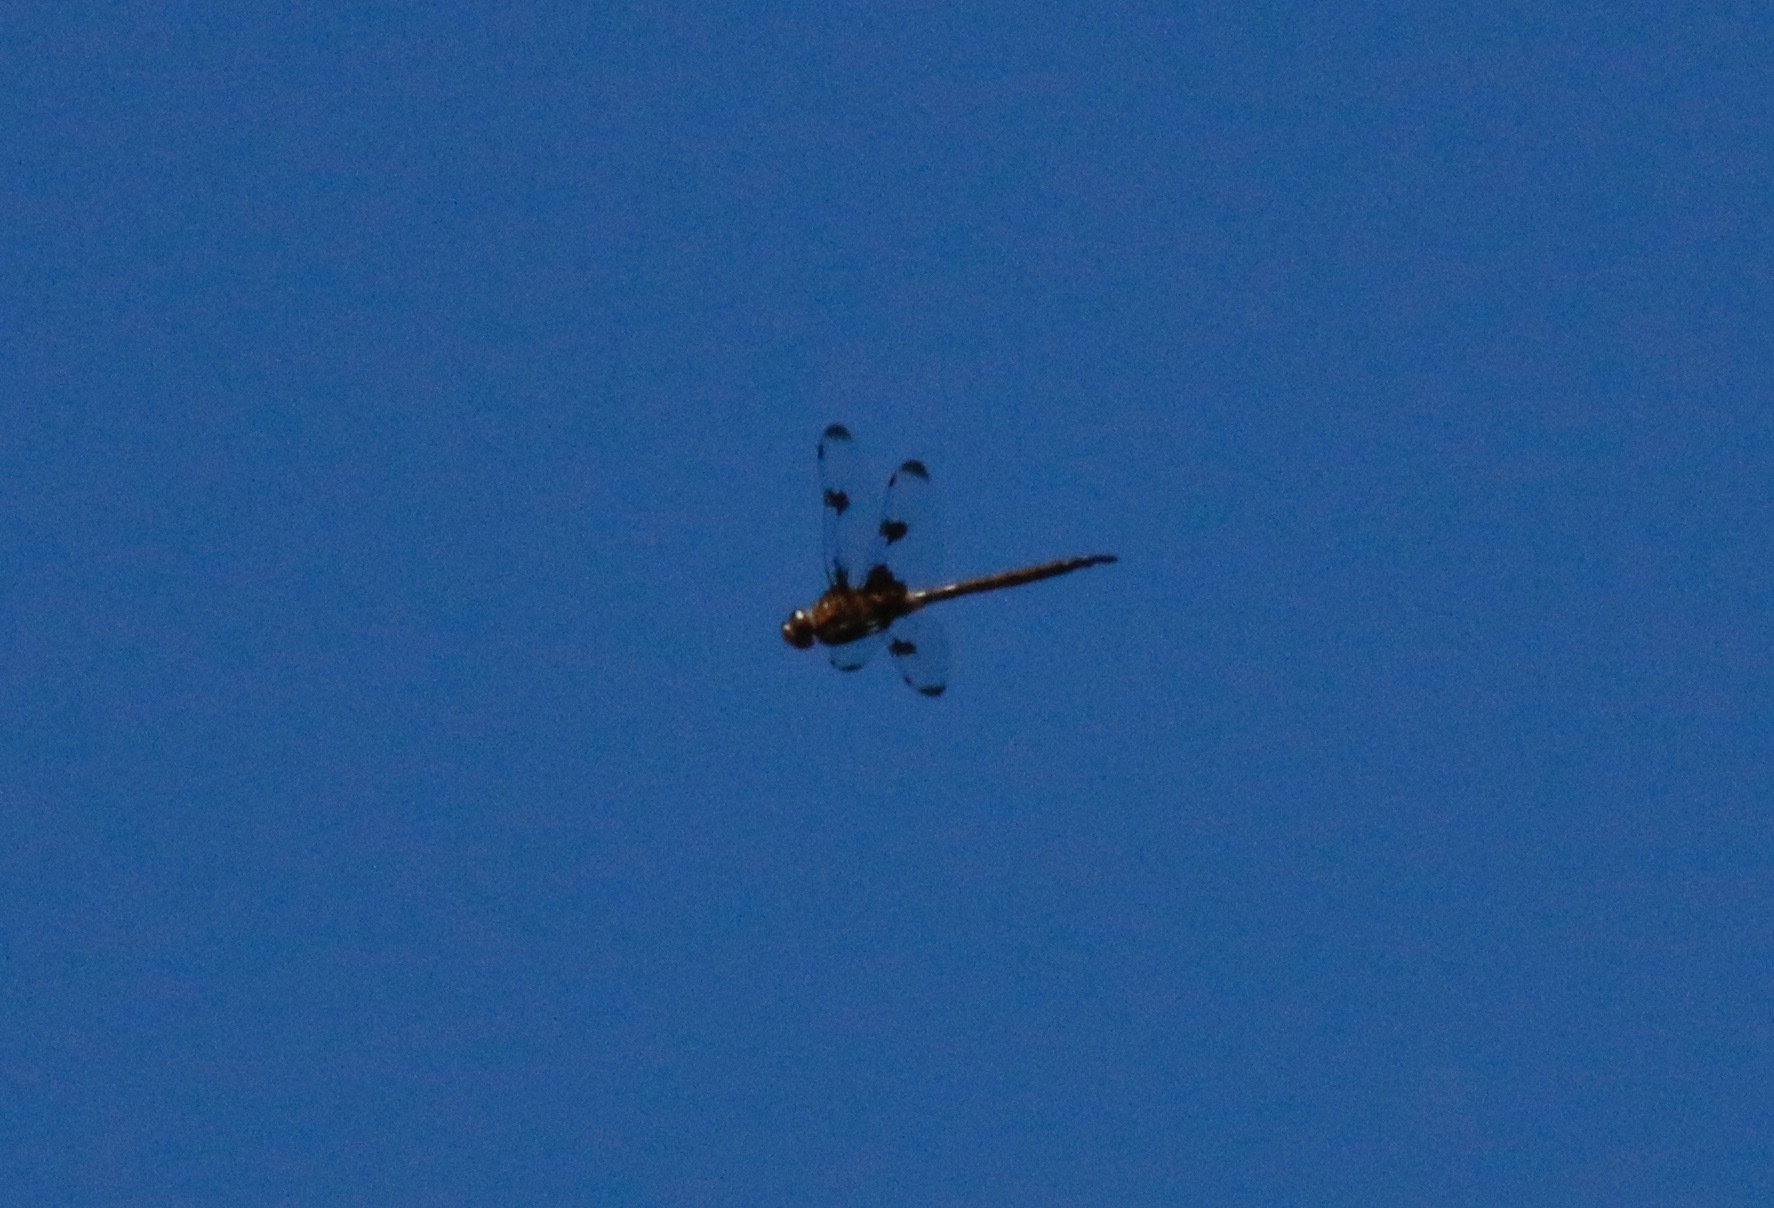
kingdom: Animalia
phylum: Arthropoda
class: Insecta
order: Odonata
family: Corduliidae
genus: Epitheca
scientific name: Epitheca princeps
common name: Prince baskettail
